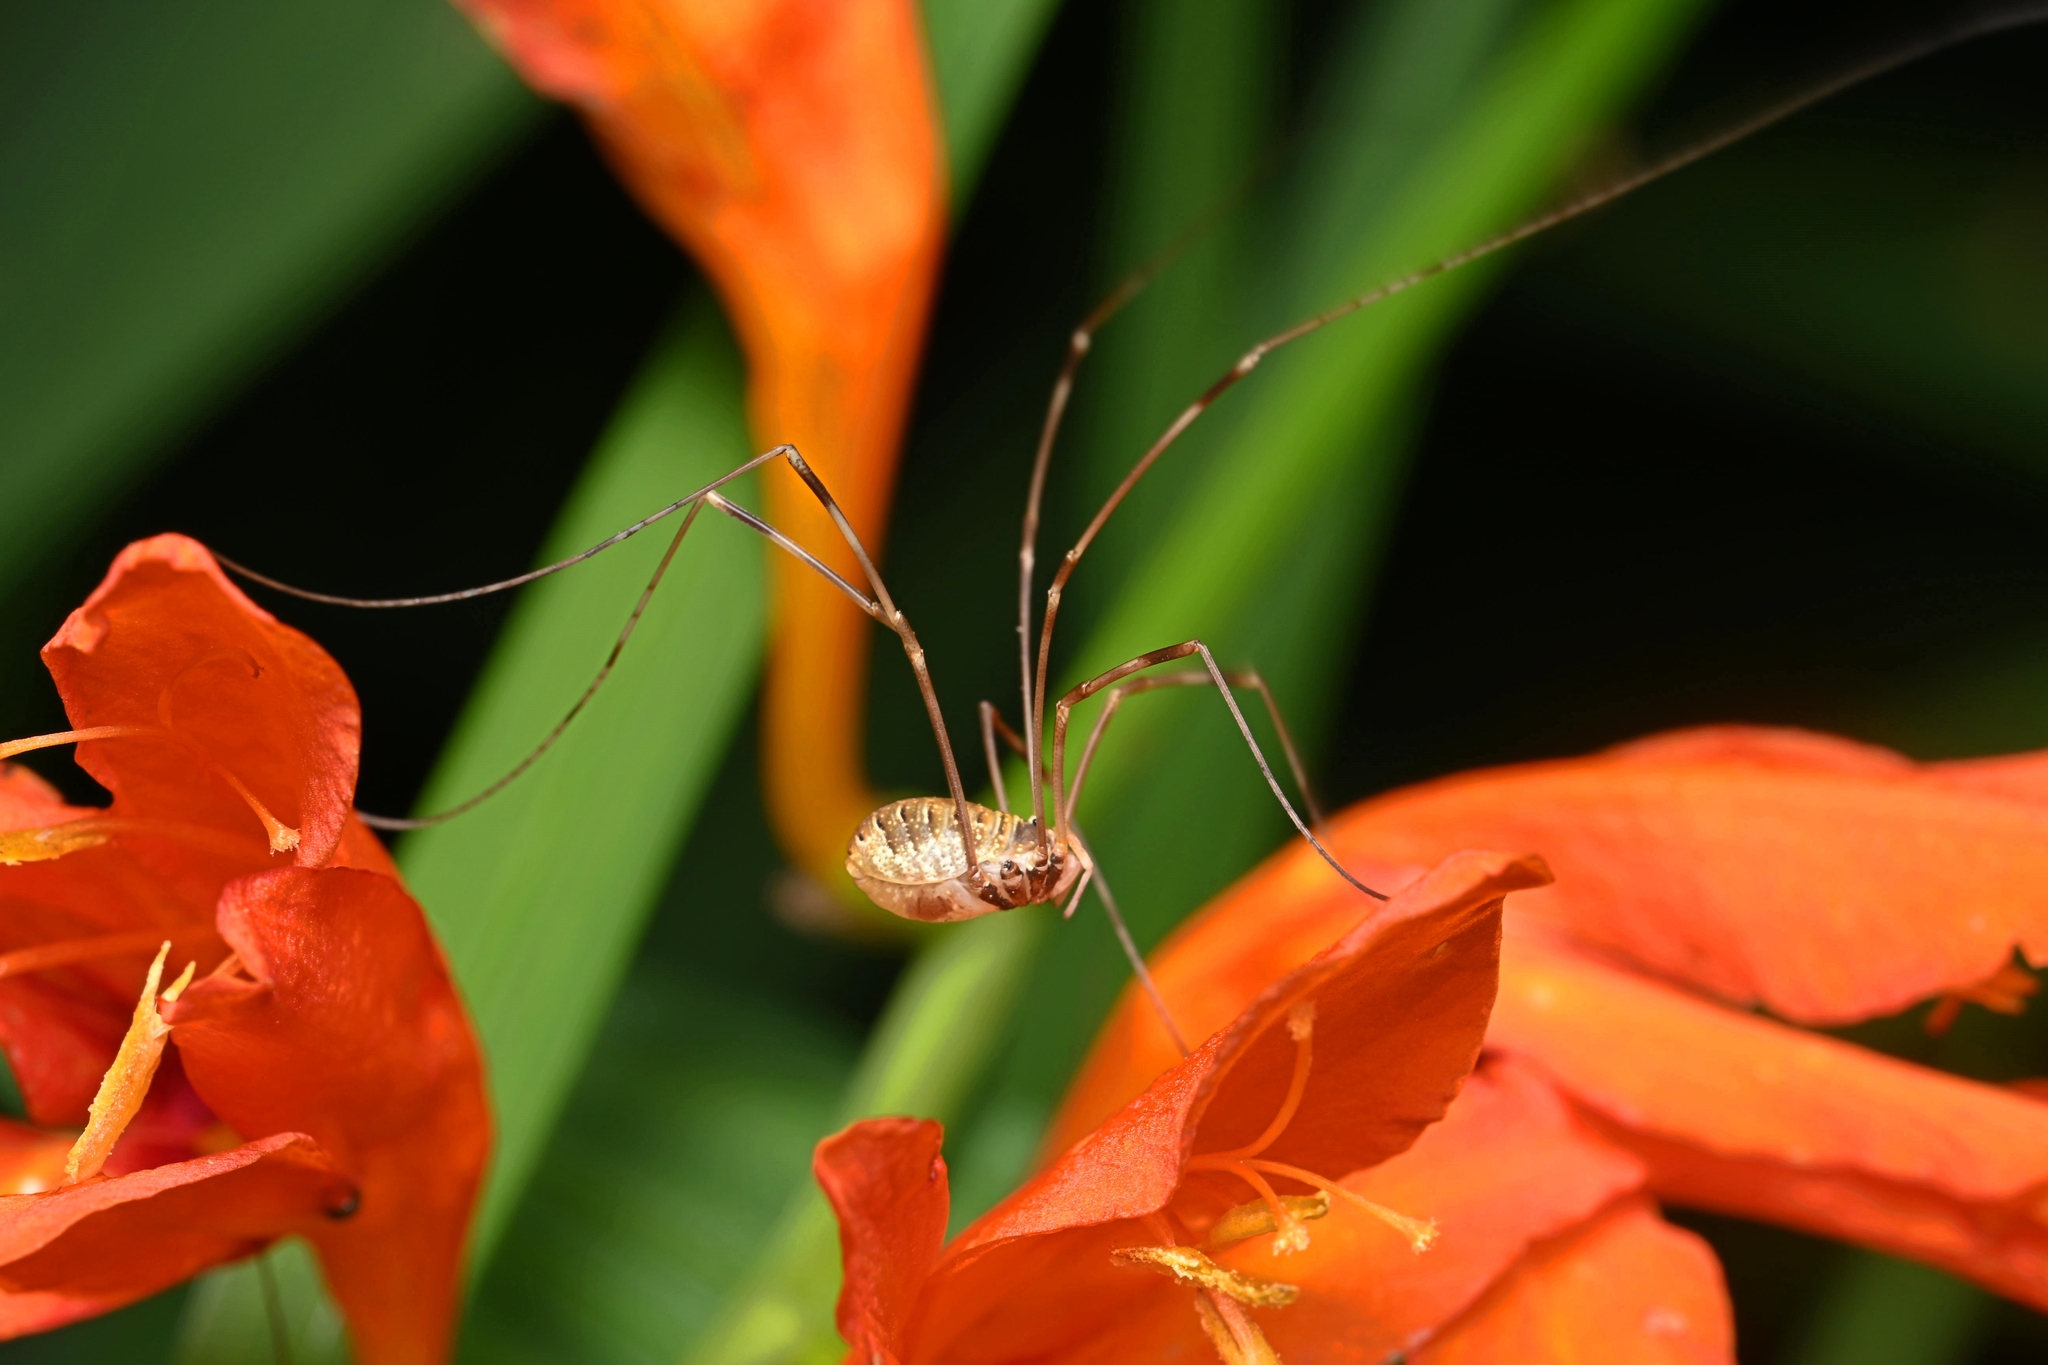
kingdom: Animalia
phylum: Arthropoda
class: Arachnida
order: Opiliones
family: Phalangiidae
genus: Opilio
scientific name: Opilio canestrinii
